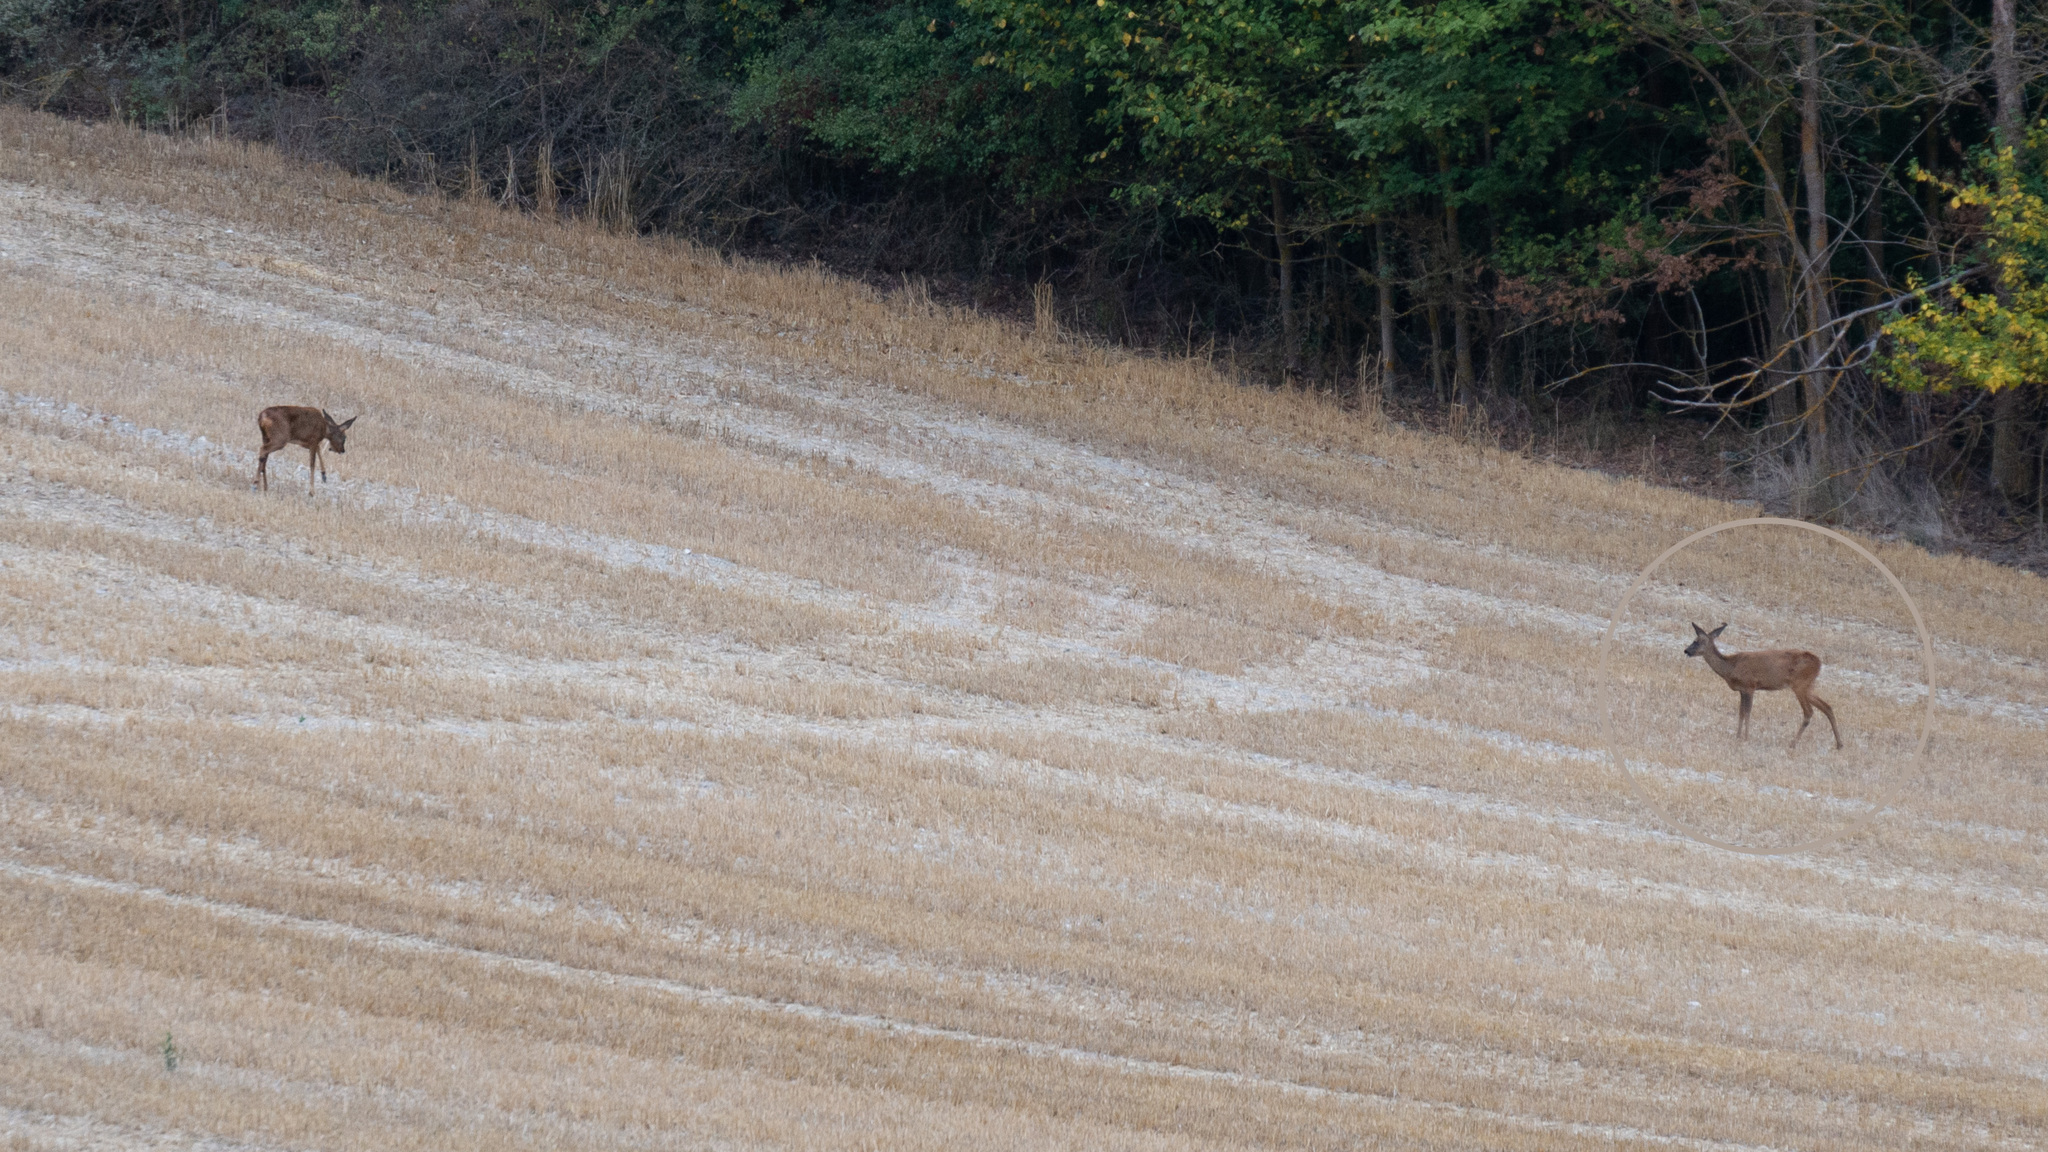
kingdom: Animalia
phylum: Chordata
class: Mammalia
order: Artiodactyla
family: Cervidae
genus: Capreolus
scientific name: Capreolus capreolus
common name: Western roe deer
